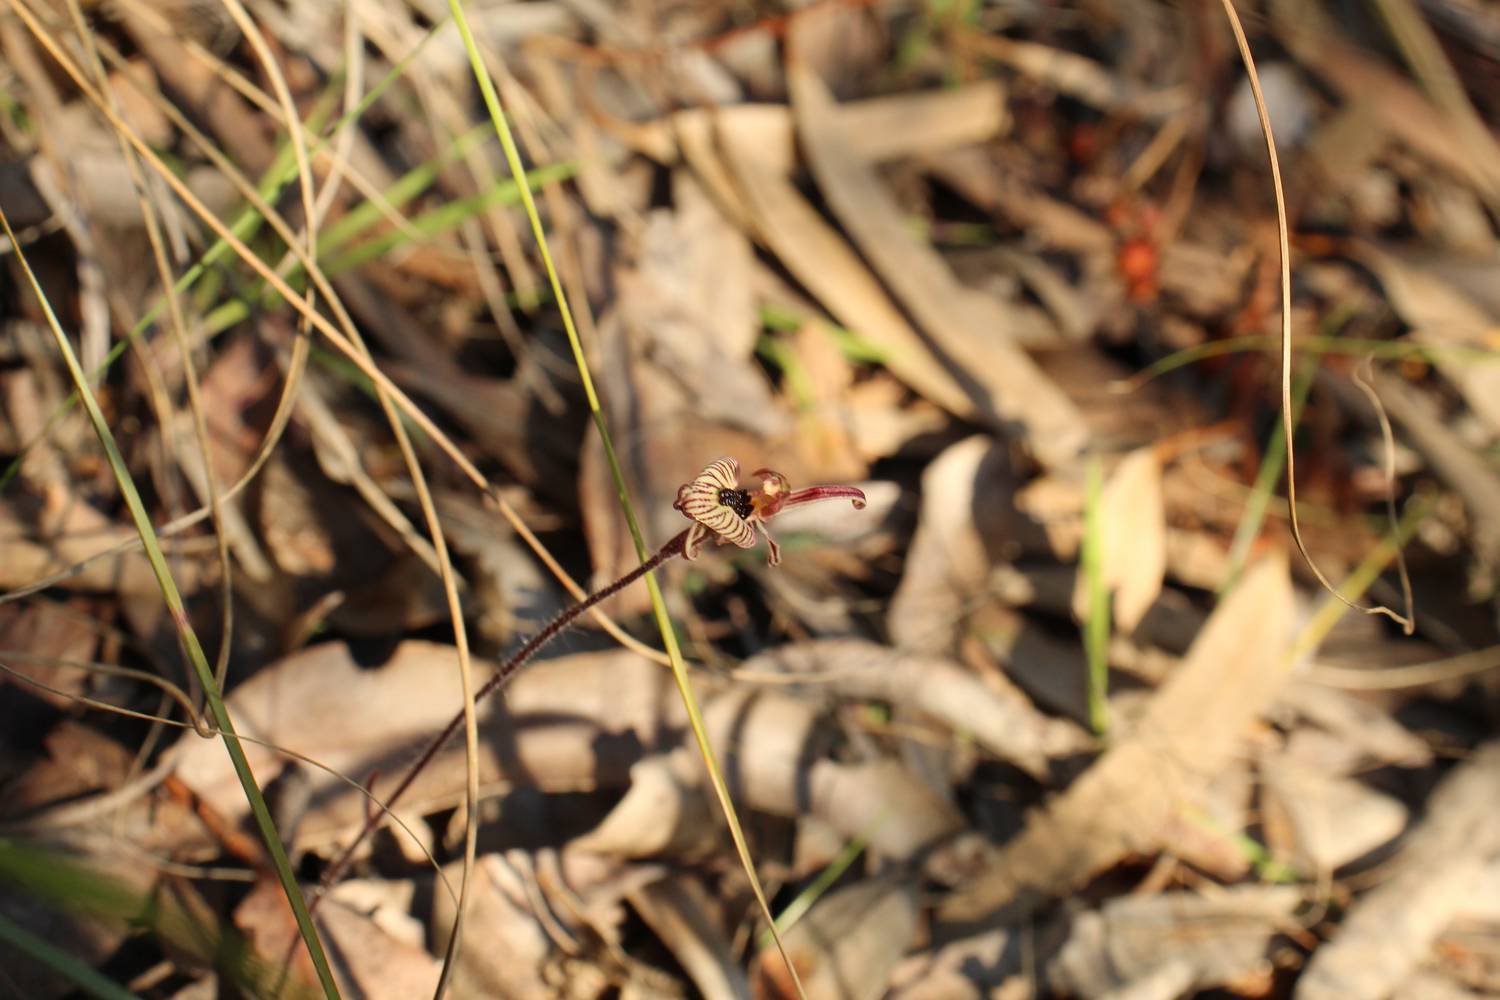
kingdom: Plantae
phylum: Tracheophyta
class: Liliopsida
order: Asparagales
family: Orchidaceae
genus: Caladenia
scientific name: Caladenia cairnsiana
